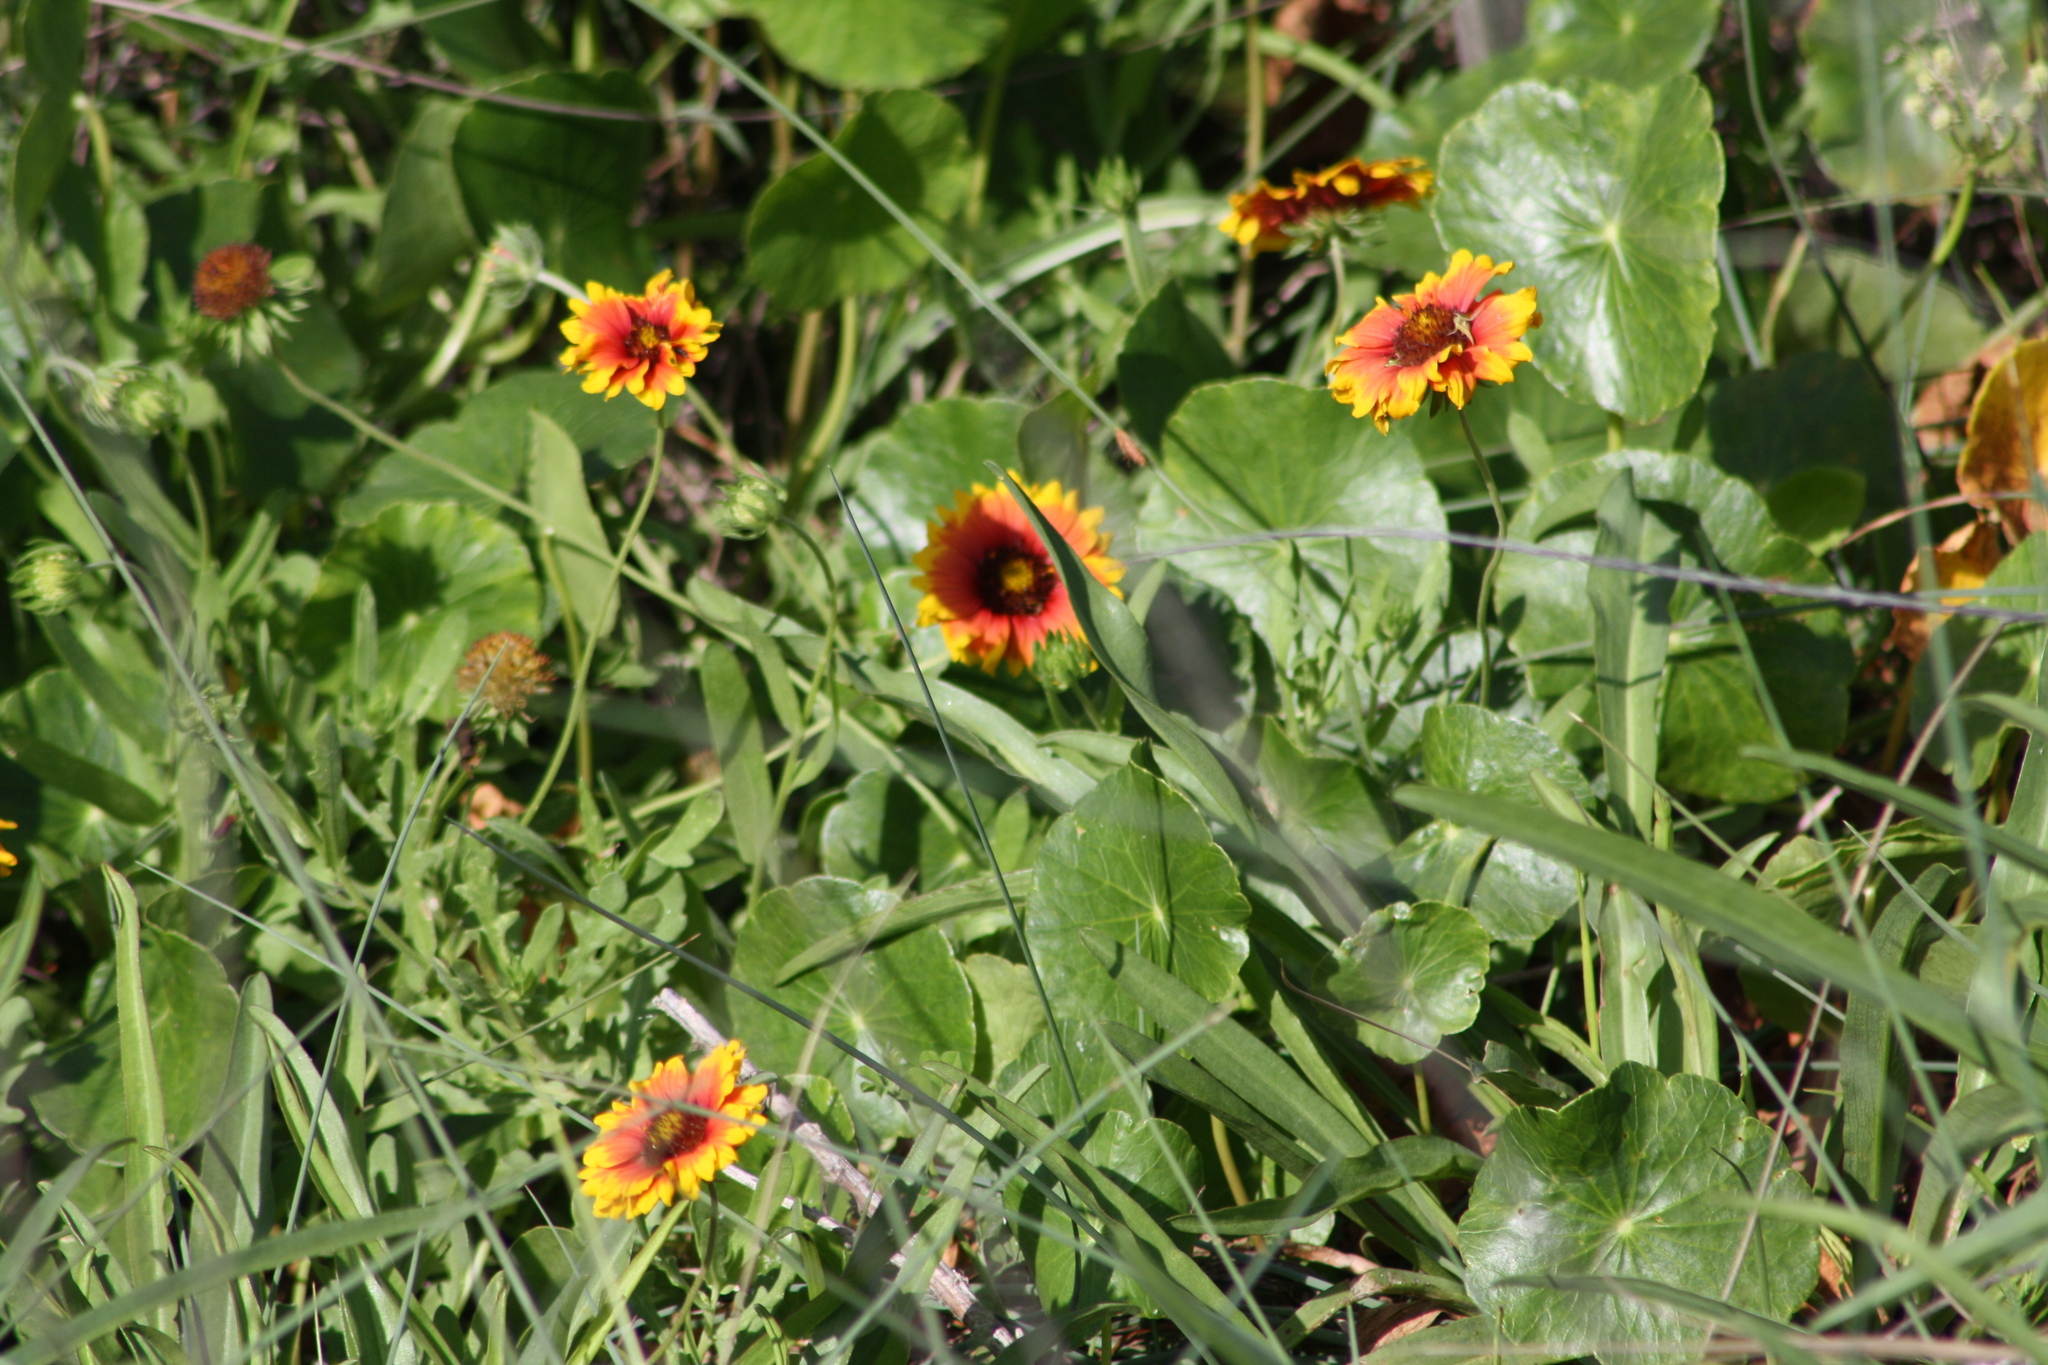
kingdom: Plantae
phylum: Tracheophyta
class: Magnoliopsida
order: Asterales
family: Asteraceae
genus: Gaillardia
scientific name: Gaillardia pulchella
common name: Firewheel
